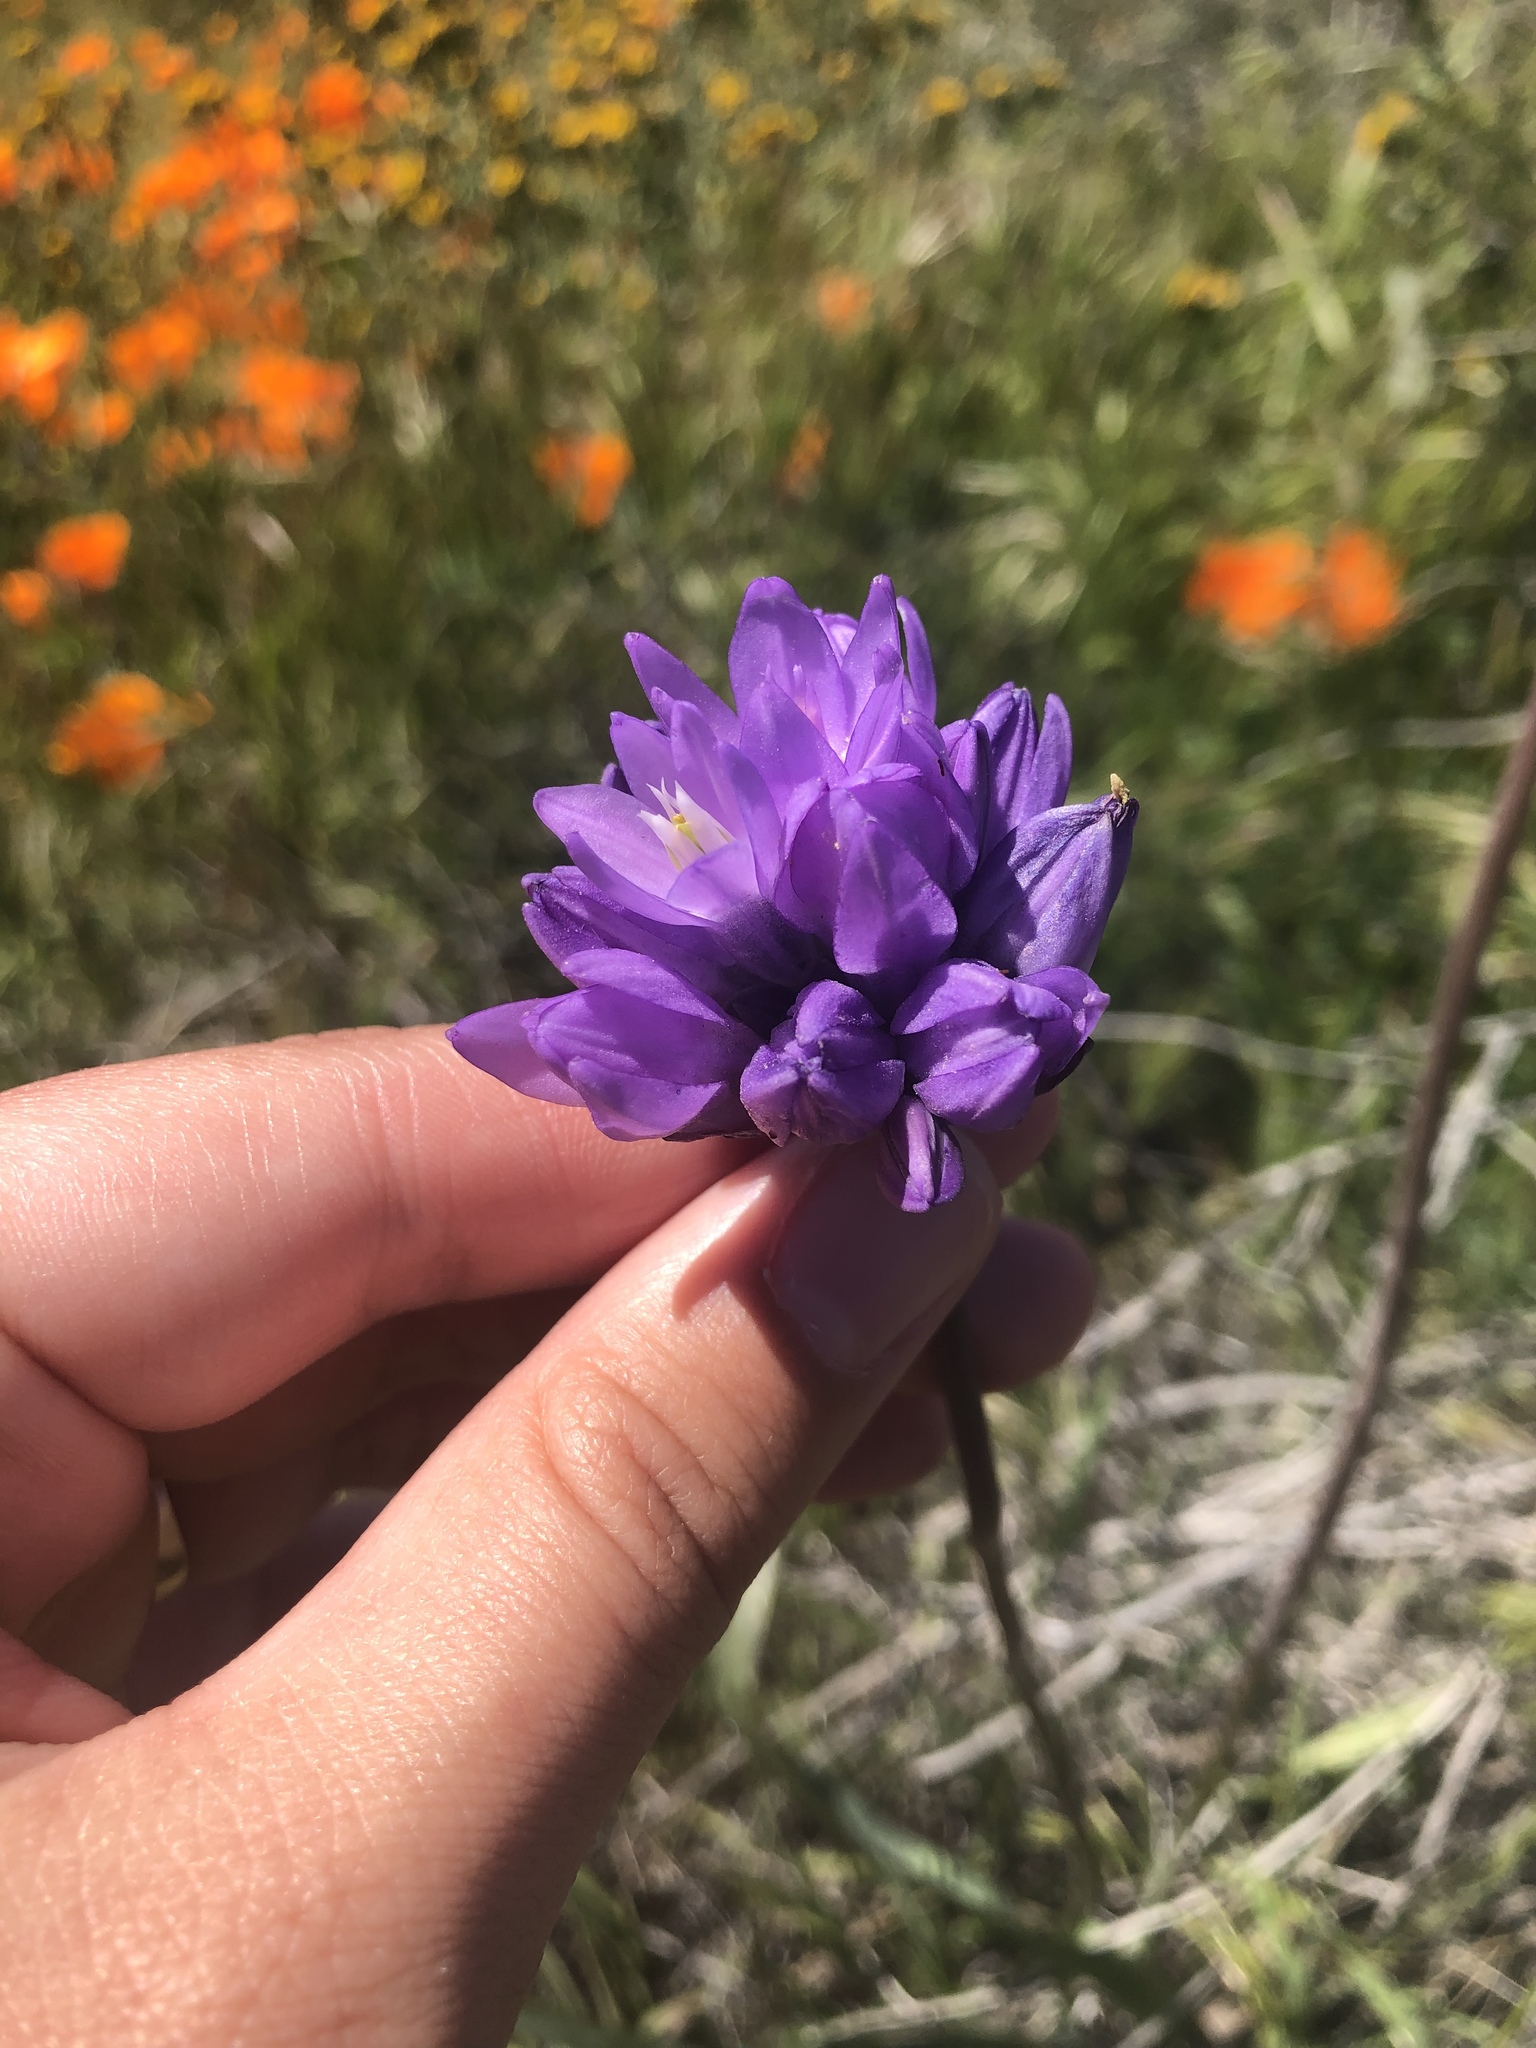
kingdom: Plantae
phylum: Tracheophyta
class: Liliopsida
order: Asparagales
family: Asparagaceae
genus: Dipterostemon
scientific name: Dipterostemon capitatus
